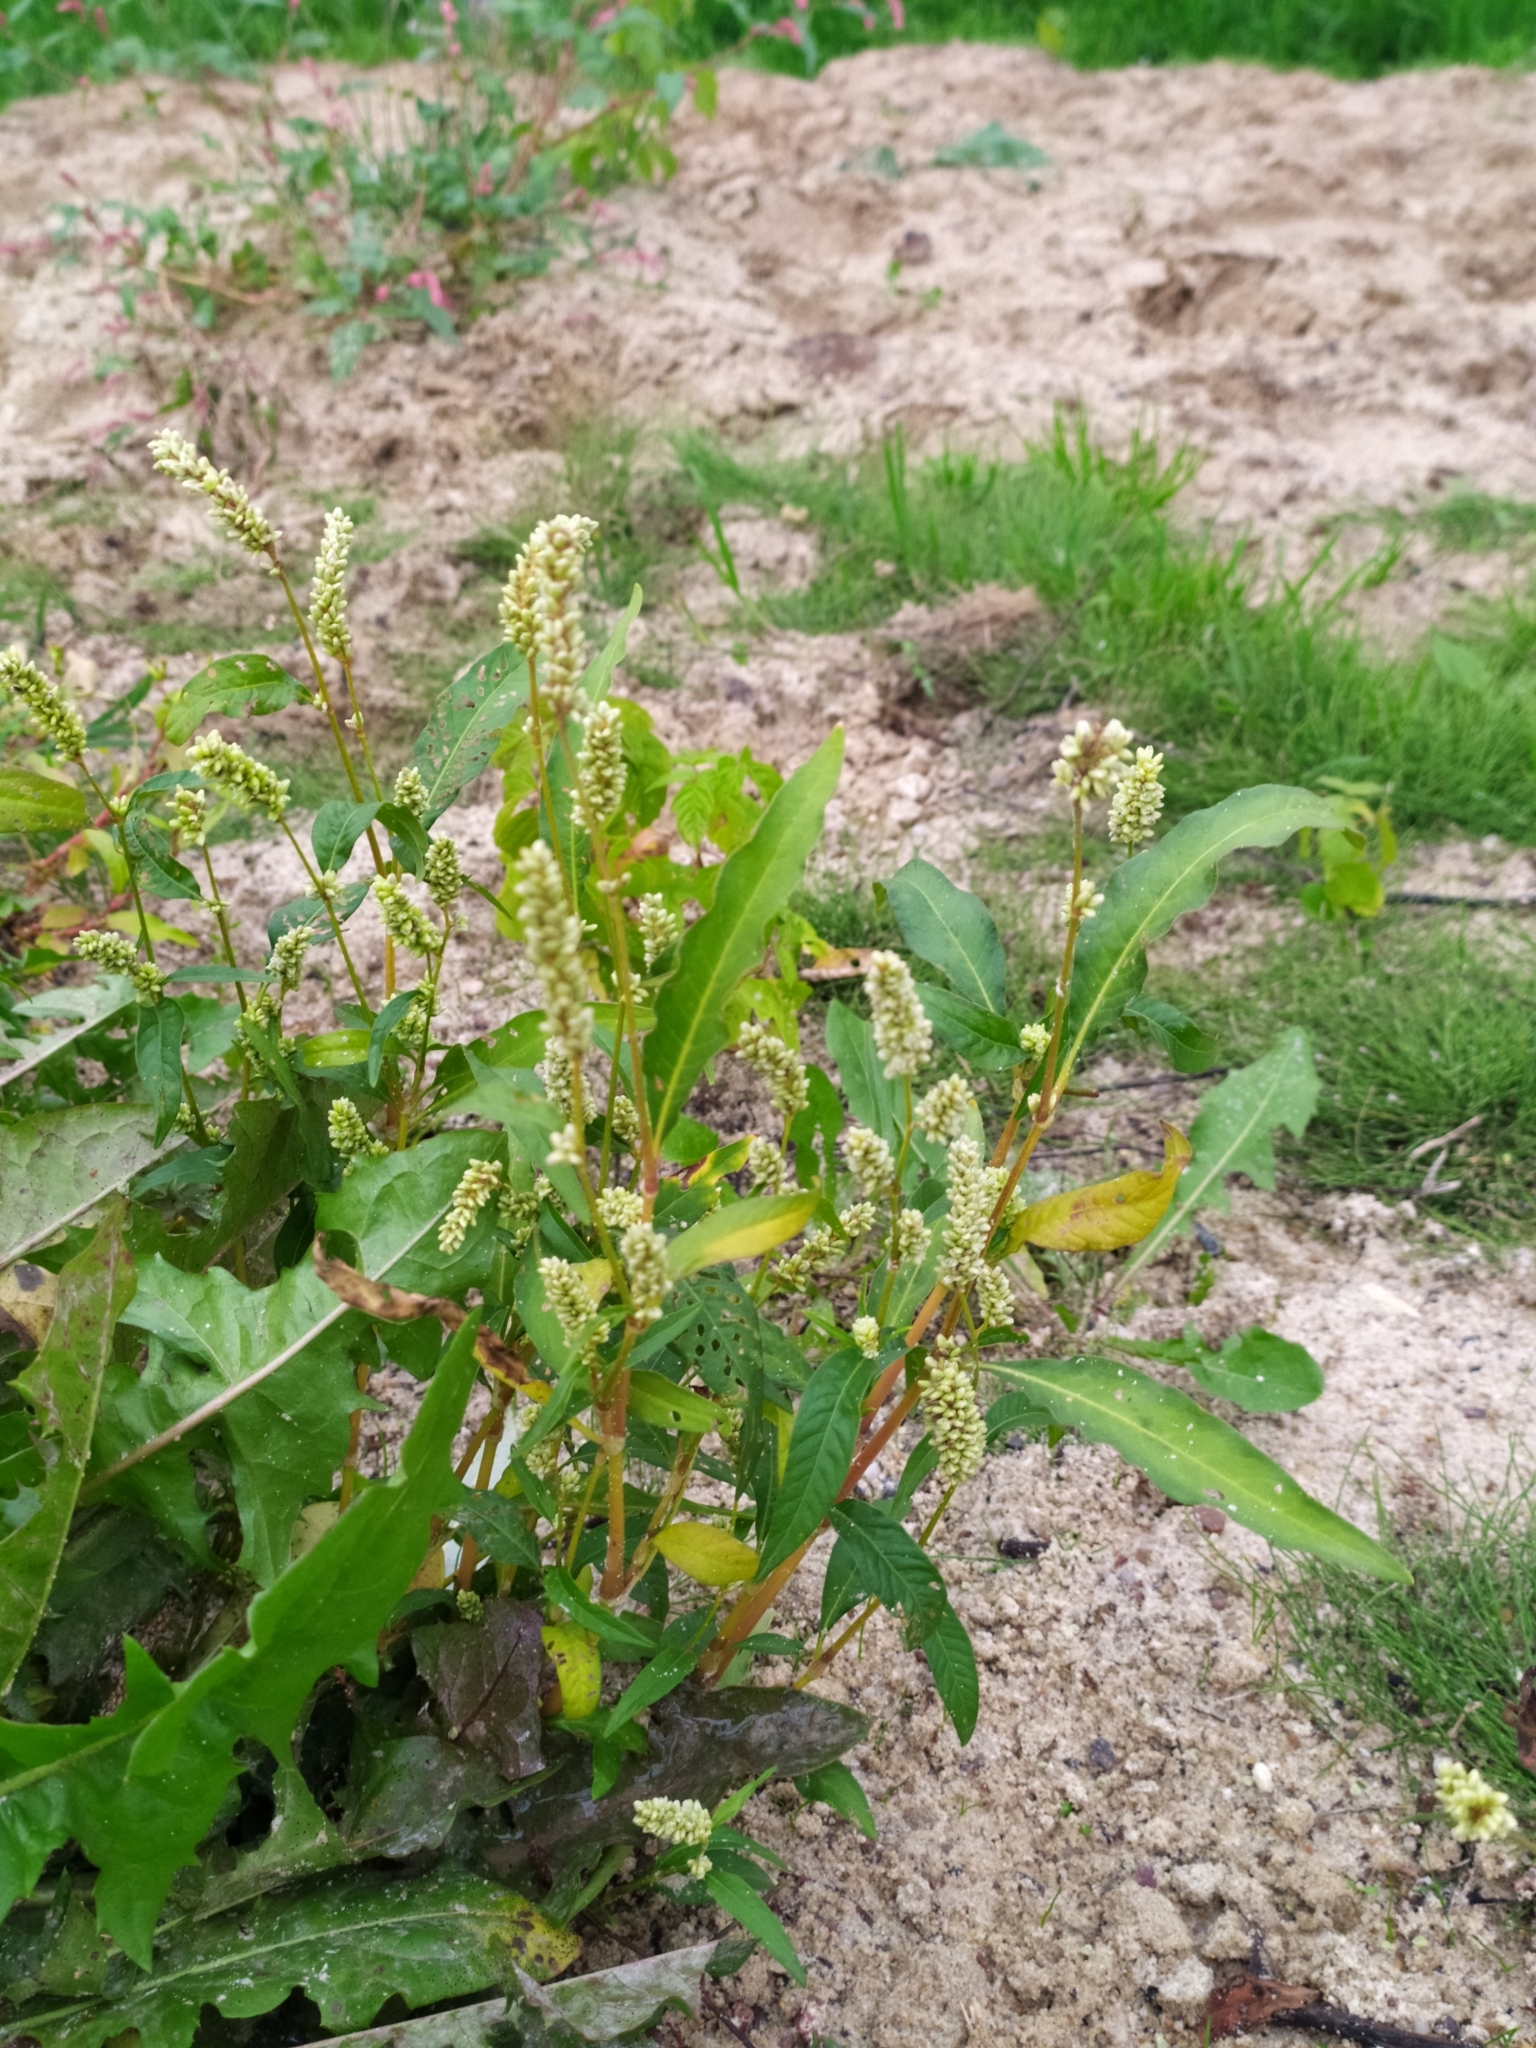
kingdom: Plantae
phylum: Tracheophyta
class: Magnoliopsida
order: Caryophyllales
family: Polygonaceae
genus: Persicaria
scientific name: Persicaria lapathifolia
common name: Curlytop knotweed
